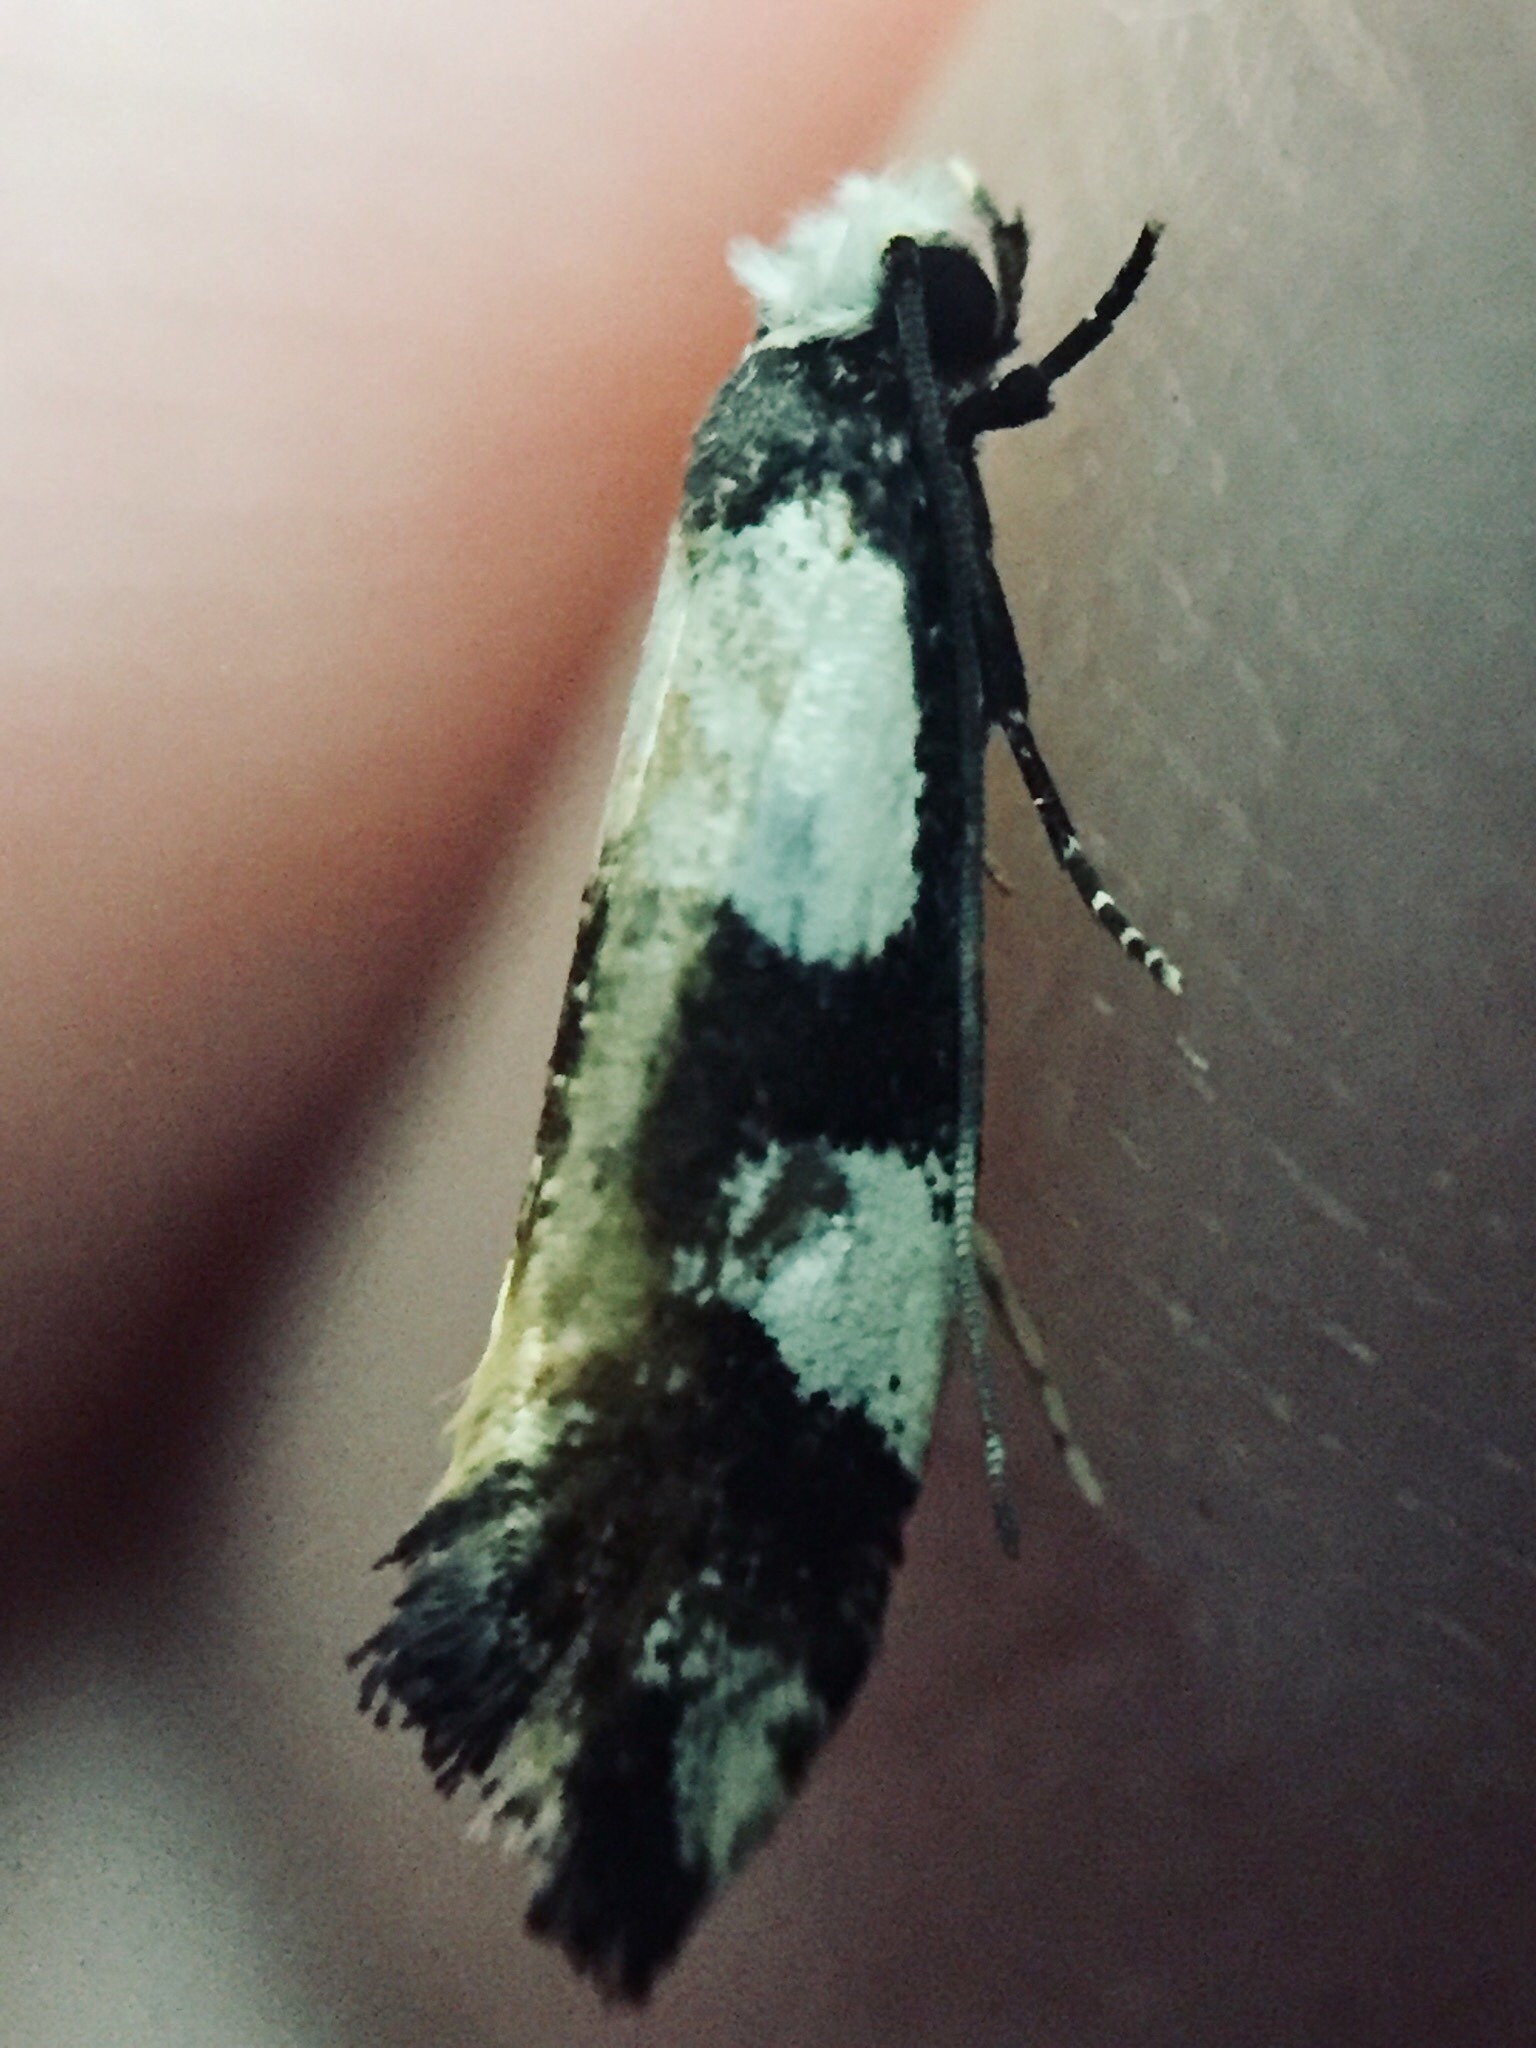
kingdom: Animalia
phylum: Arthropoda
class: Insecta
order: Lepidoptera
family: Tineidae
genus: Monopis
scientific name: Monopis icterogastra
